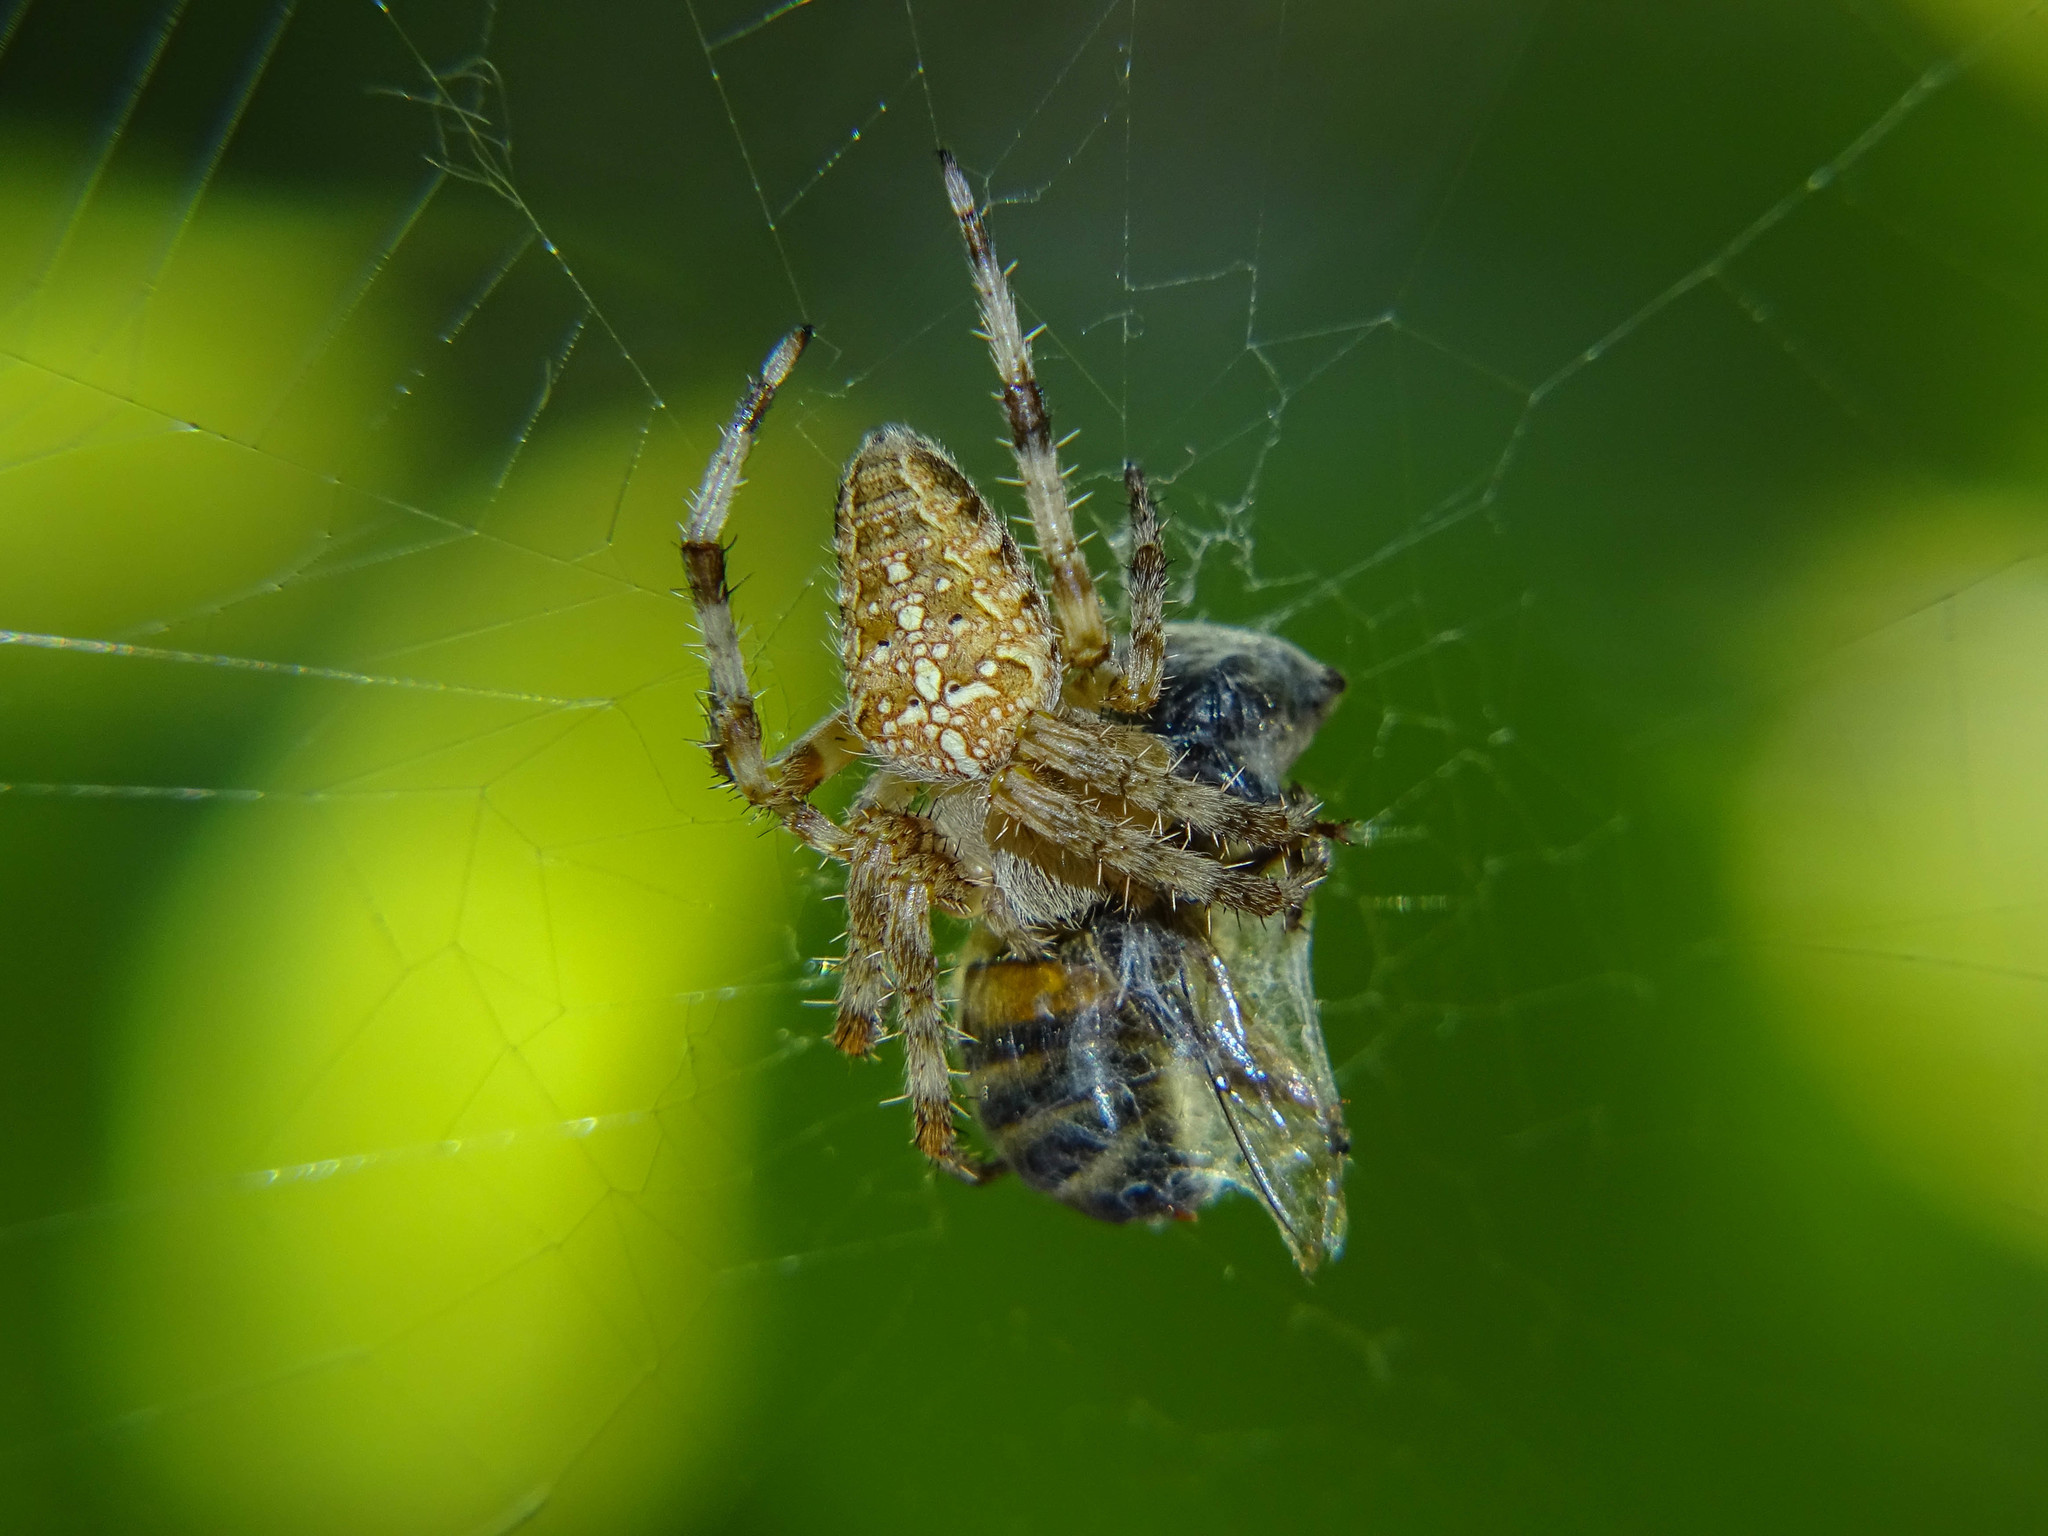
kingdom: Animalia
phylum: Arthropoda
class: Arachnida
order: Araneae
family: Araneidae
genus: Araneus
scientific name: Araneus diadematus
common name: Cross orbweaver
